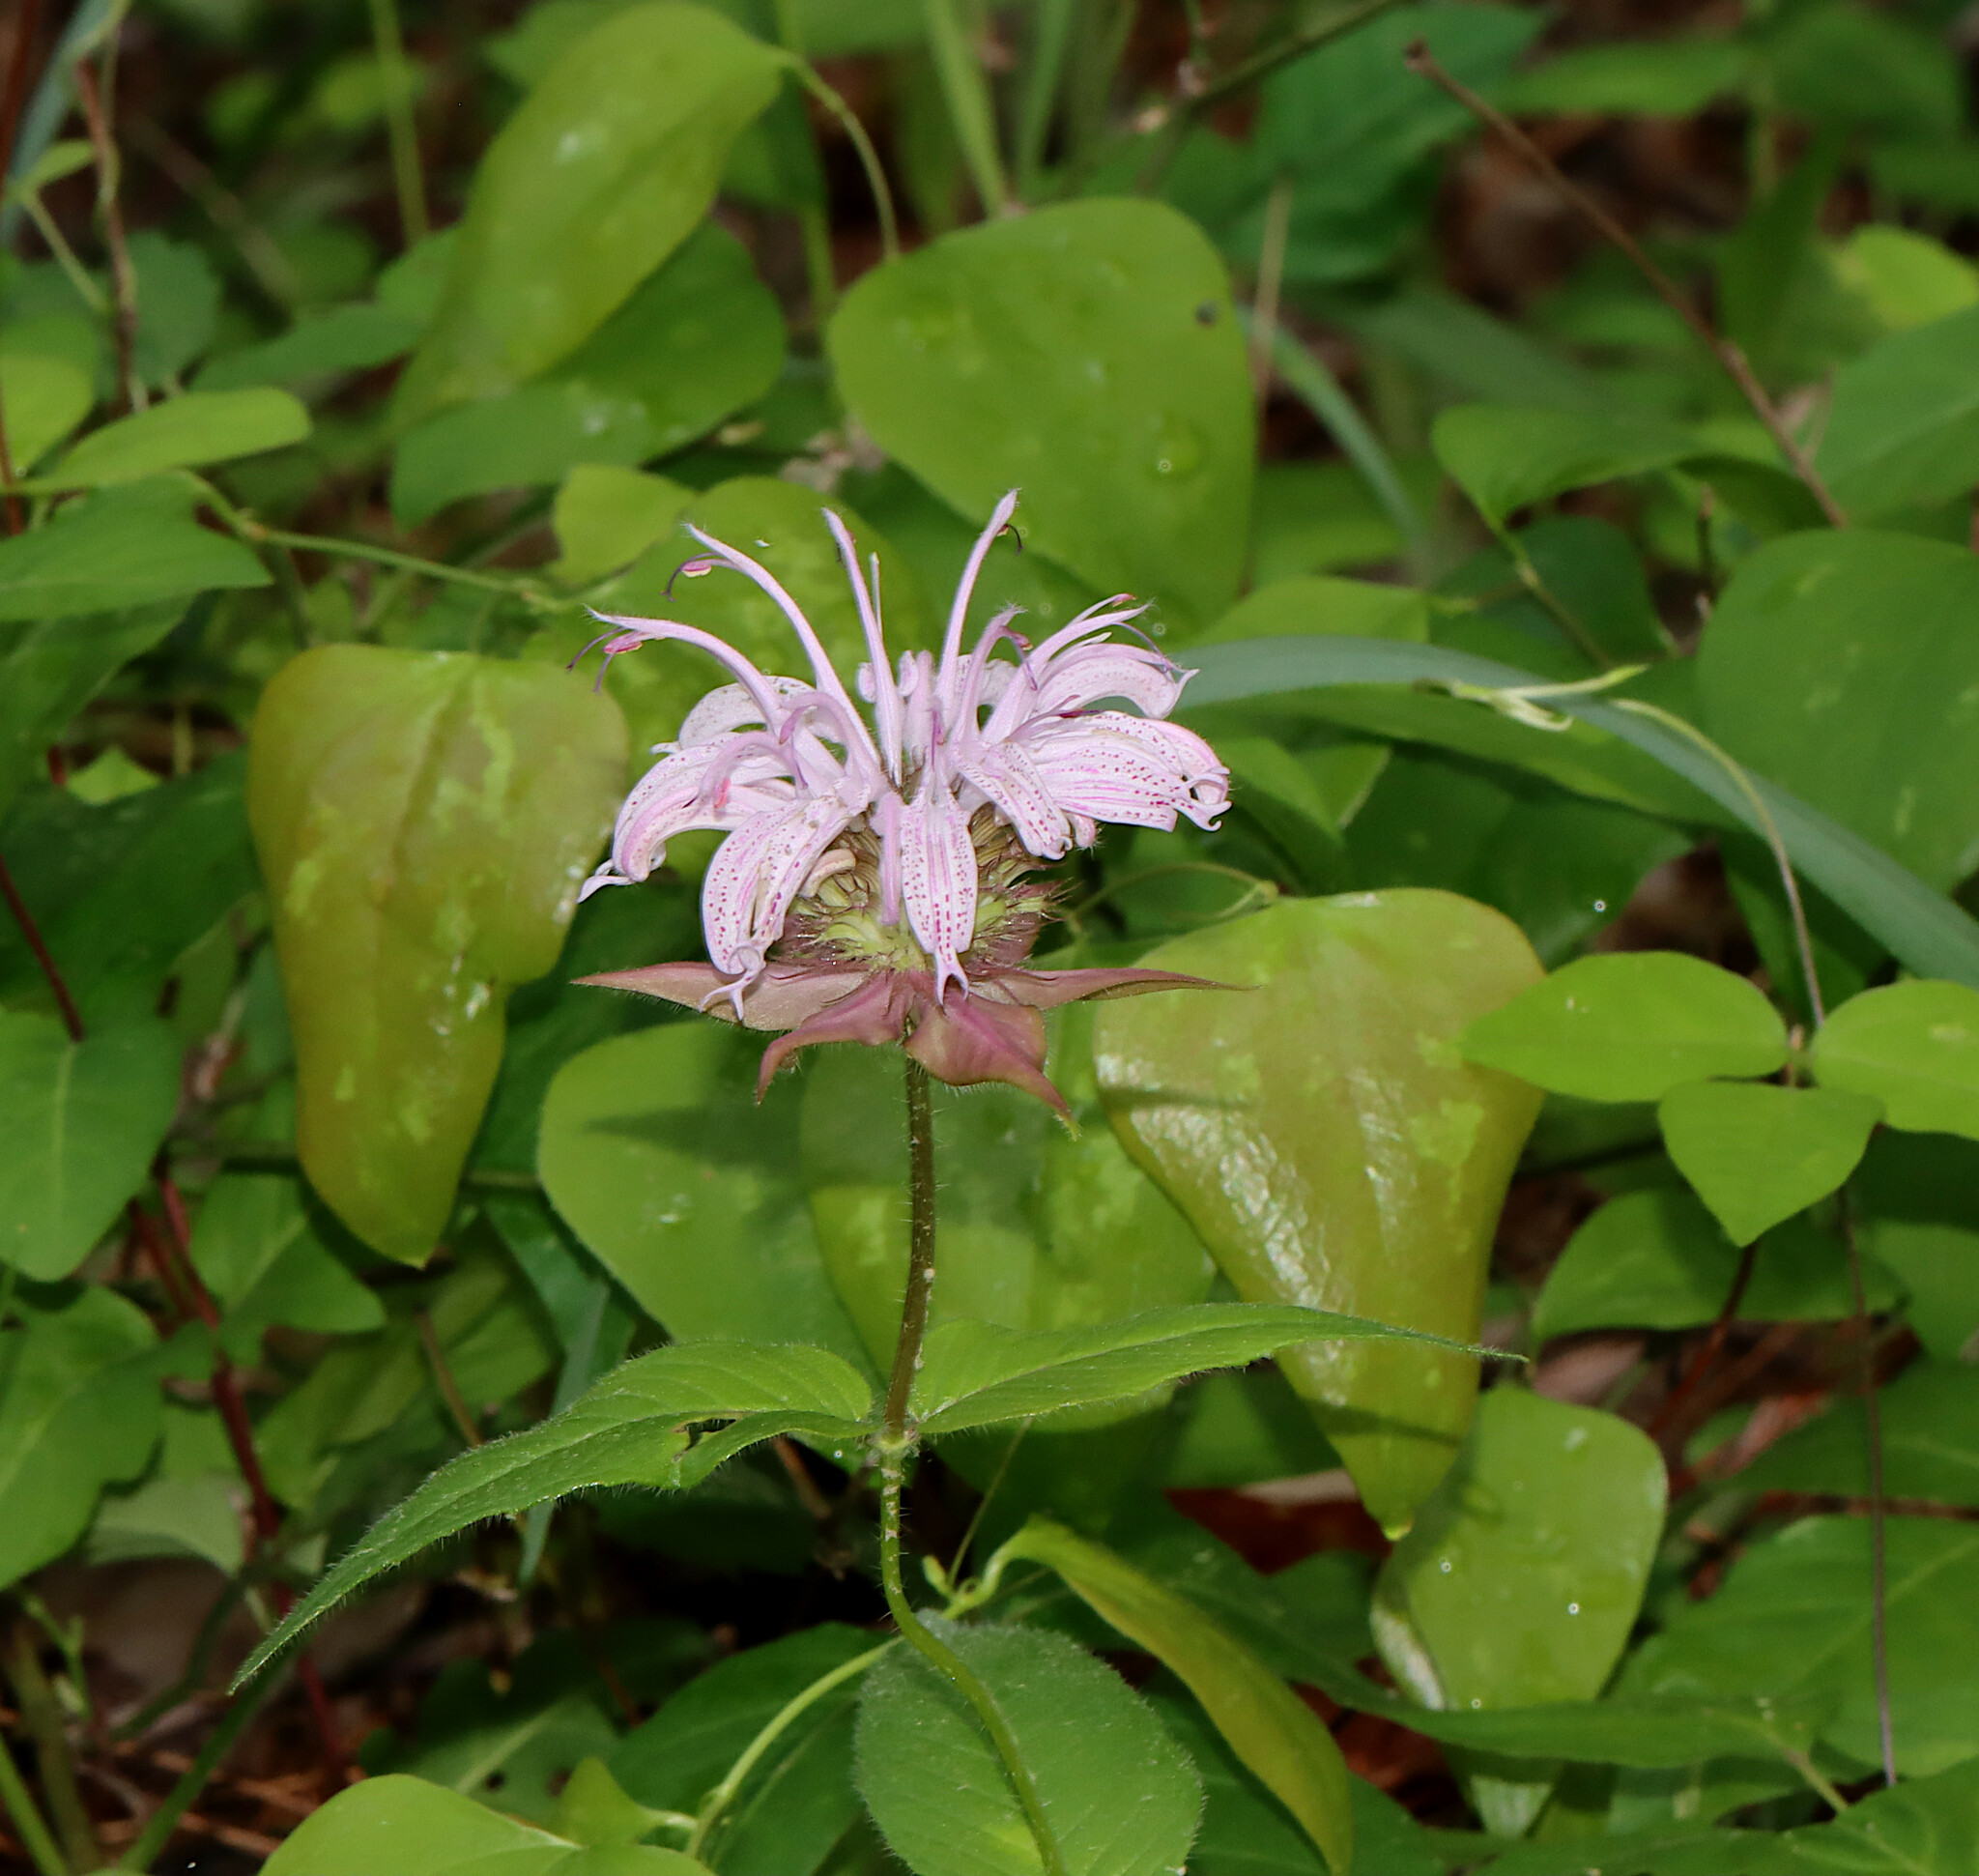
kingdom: Plantae
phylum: Tracheophyta
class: Magnoliopsida
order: Lamiales
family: Lamiaceae
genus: Monarda
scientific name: Monarda bradburiana
